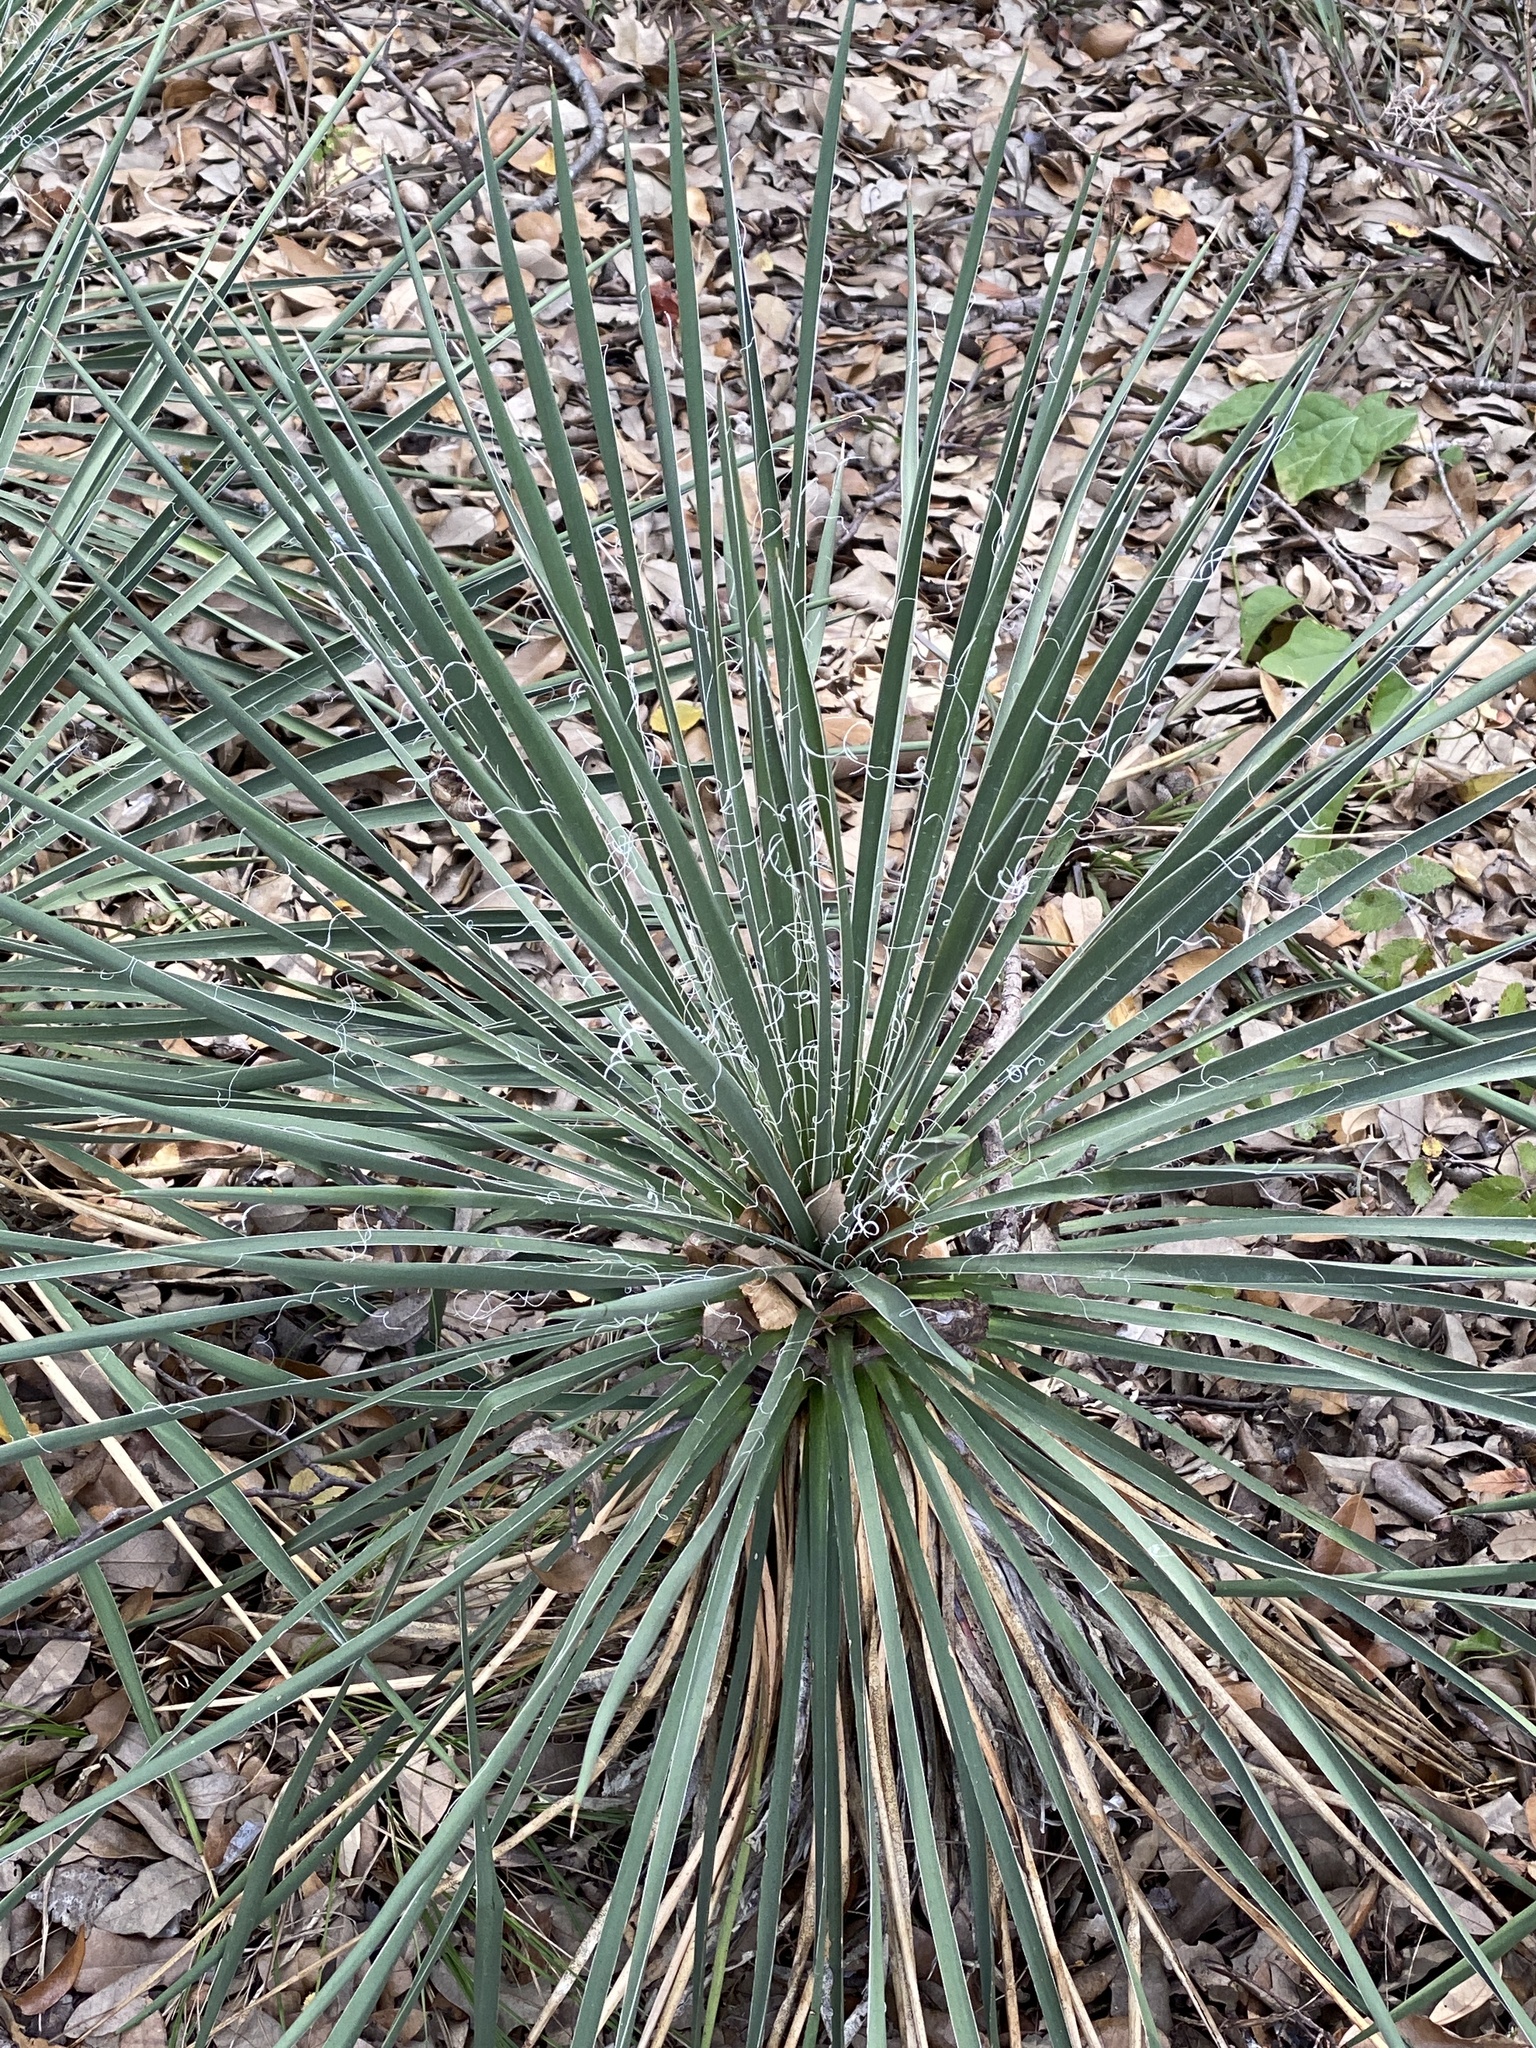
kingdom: Plantae
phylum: Tracheophyta
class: Liliopsida
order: Asparagales
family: Asparagaceae
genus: Yucca
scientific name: Yucca constricta
